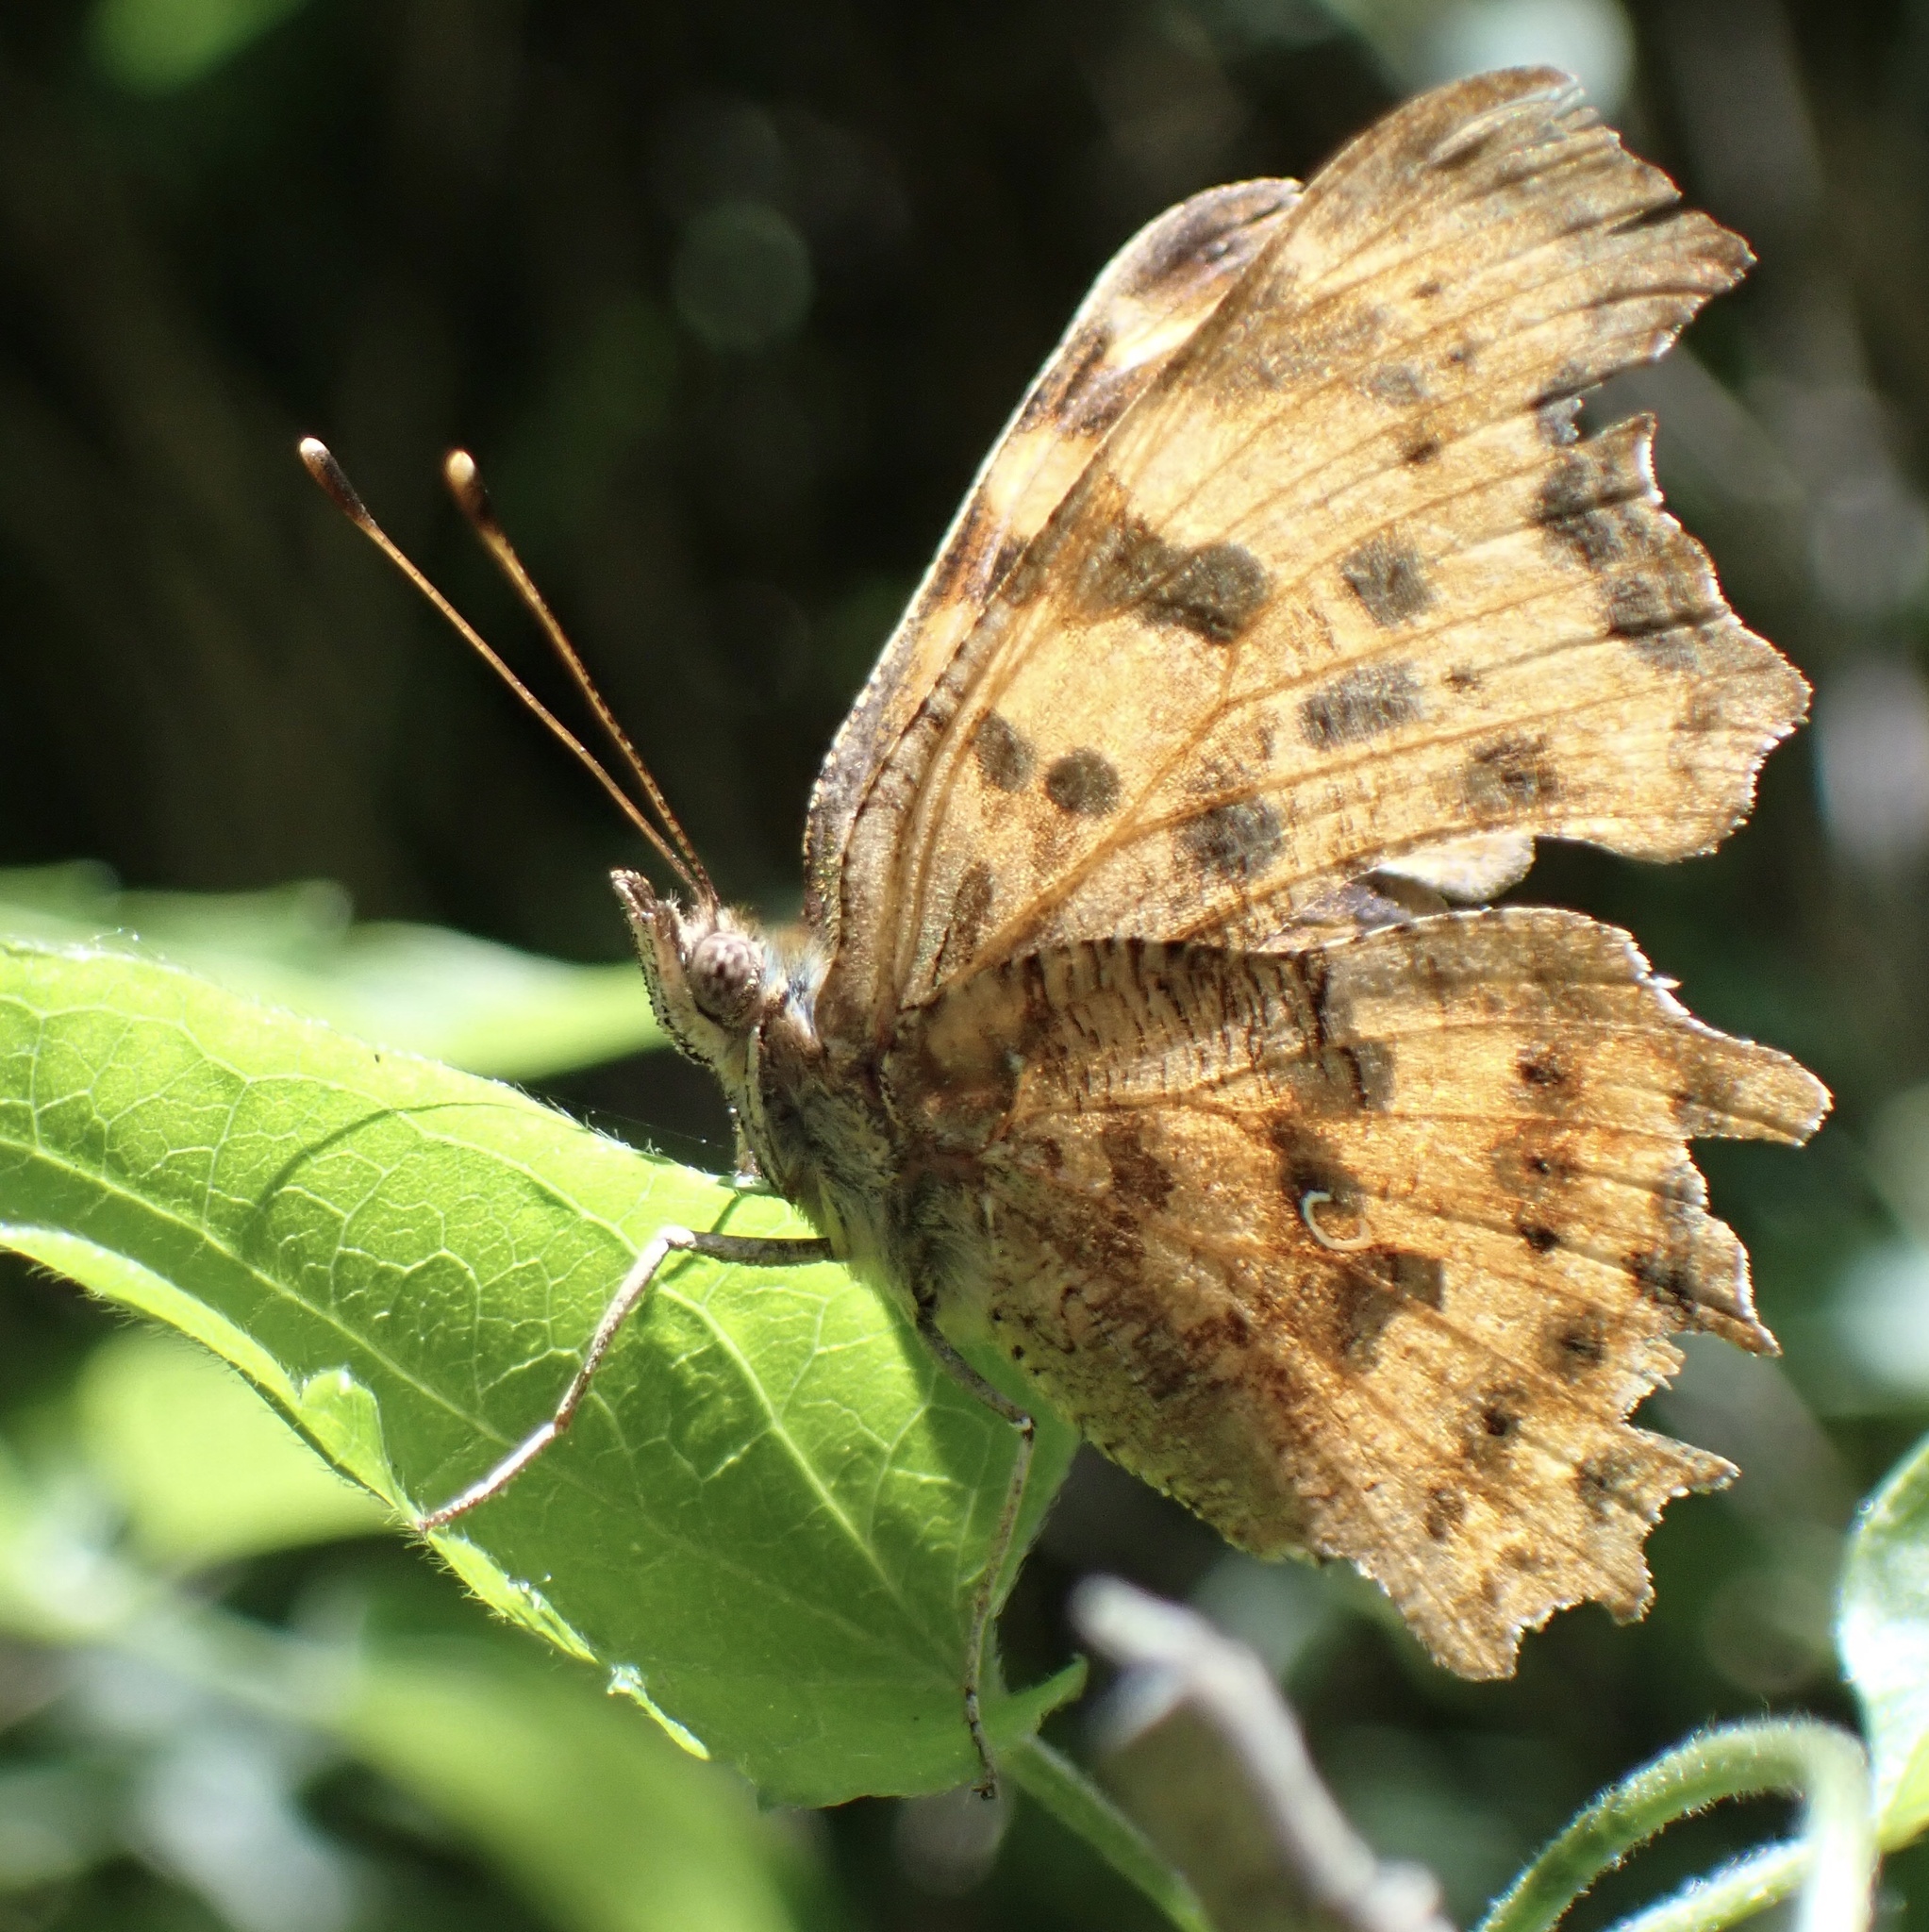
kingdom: Animalia
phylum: Arthropoda
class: Insecta
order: Lepidoptera
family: Nymphalidae
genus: Polygonia
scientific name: Polygonia c-album
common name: Comma
